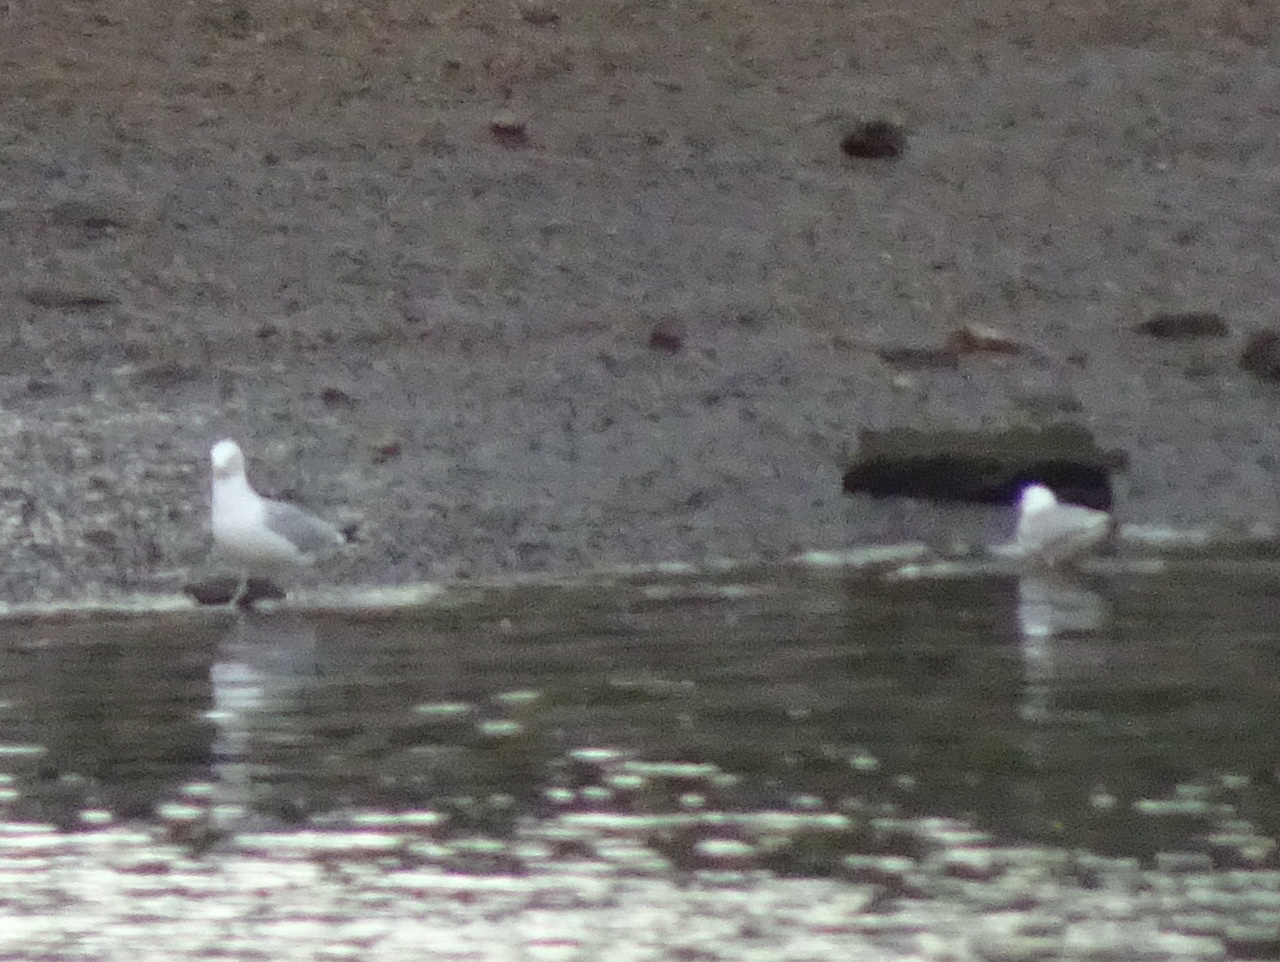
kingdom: Animalia
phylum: Chordata
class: Aves
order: Charadriiformes
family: Laridae
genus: Larus
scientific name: Larus canus
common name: Mew gull
